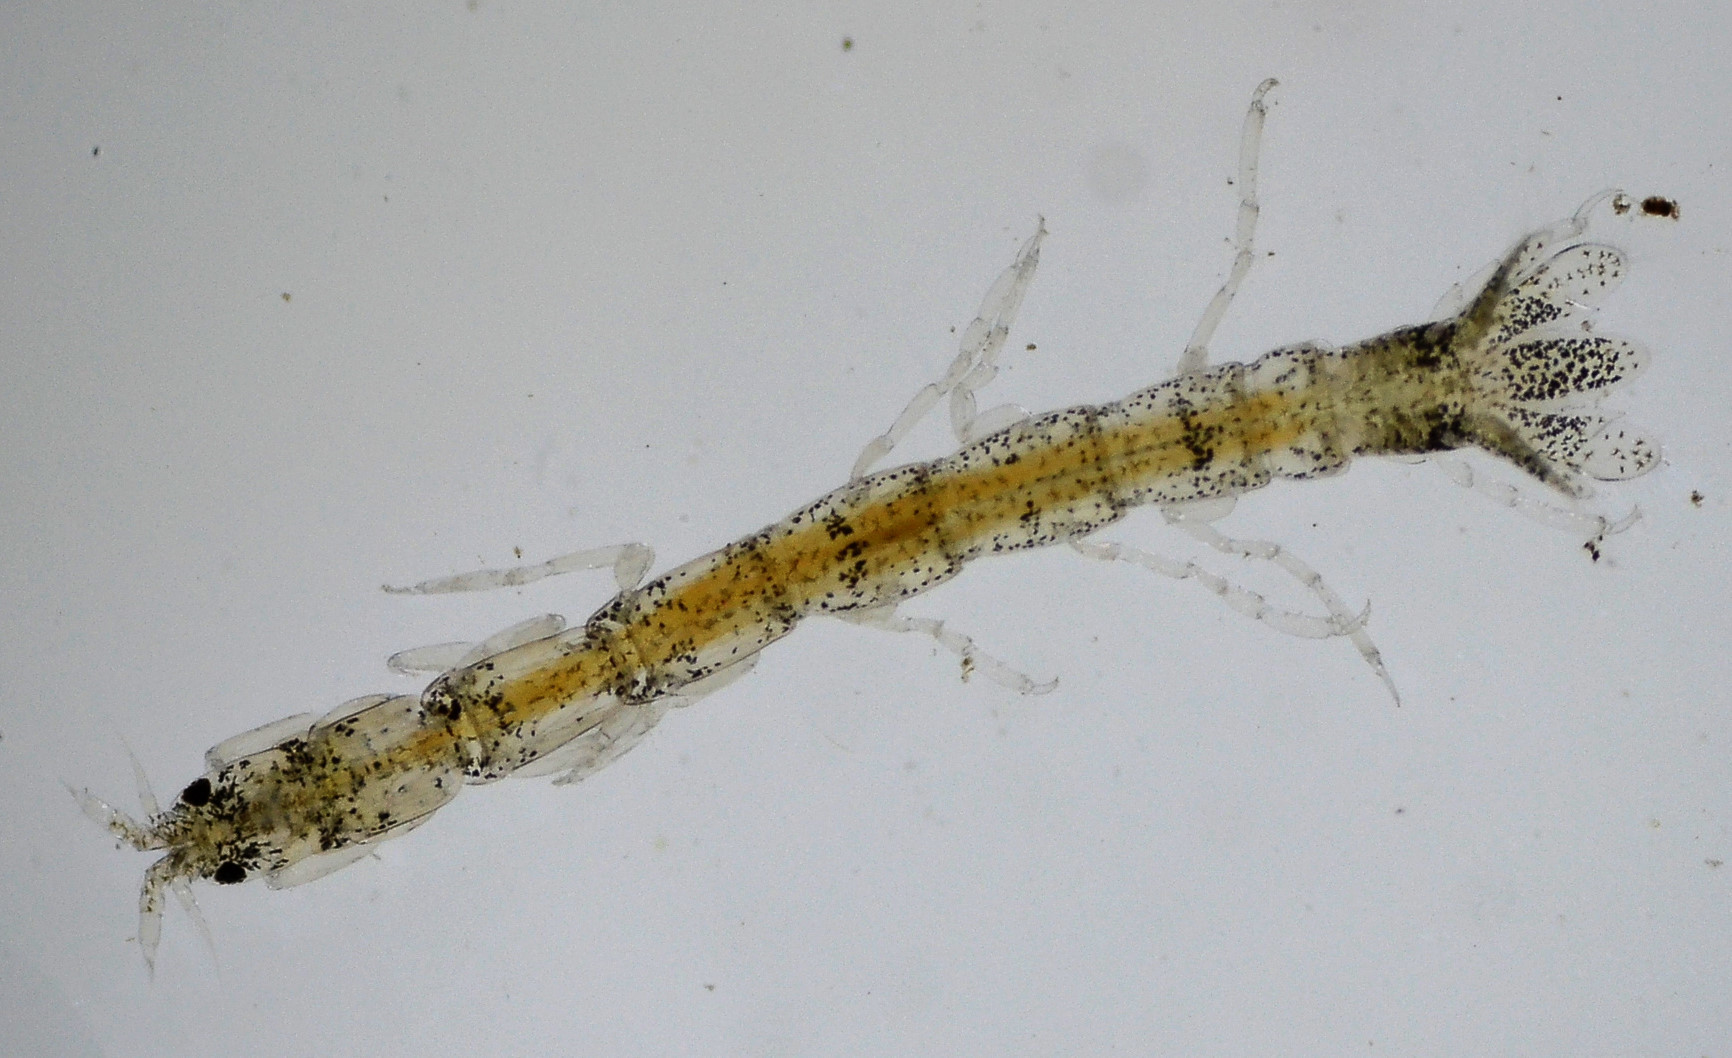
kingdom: Animalia
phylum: Arthropoda
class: Malacostraca
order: Isopoda
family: Paranthuridae
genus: Paranthura
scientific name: Paranthura elegans
